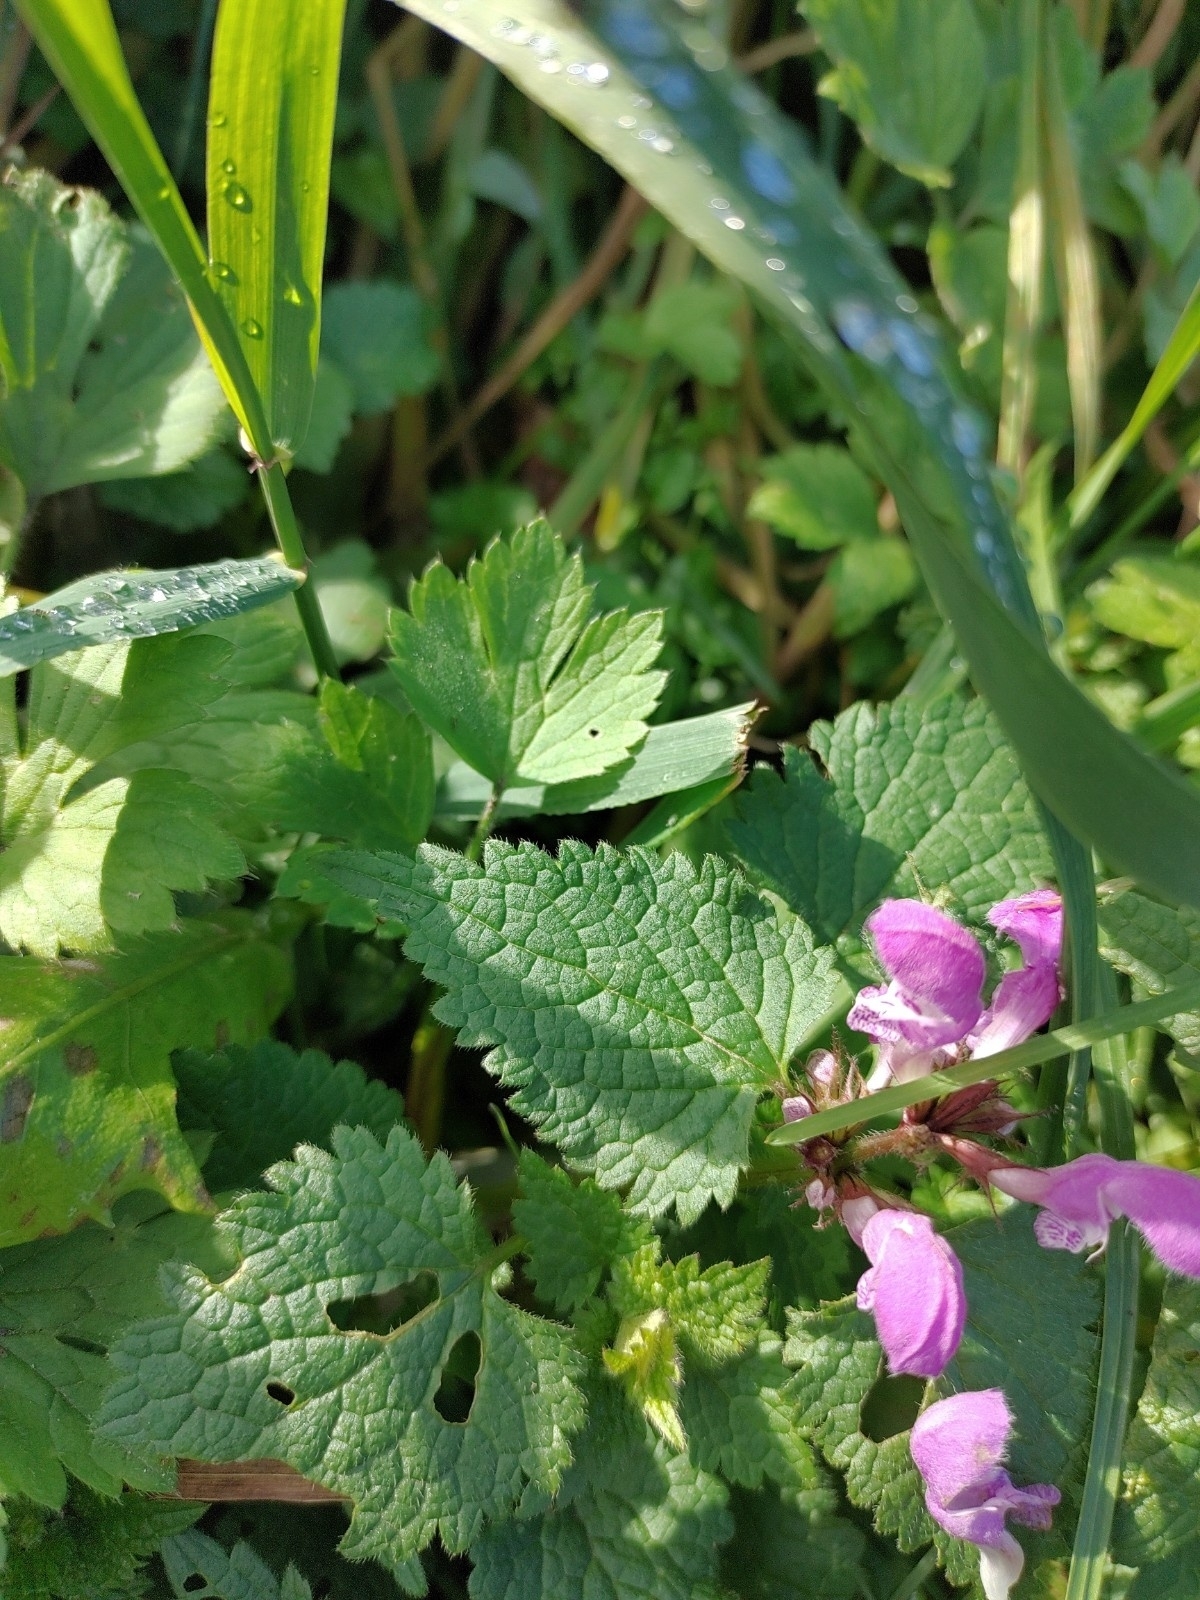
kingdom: Plantae
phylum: Tracheophyta
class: Magnoliopsida
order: Lamiales
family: Lamiaceae
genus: Lamium
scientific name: Lamium maculatum
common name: Spotted dead-nettle
